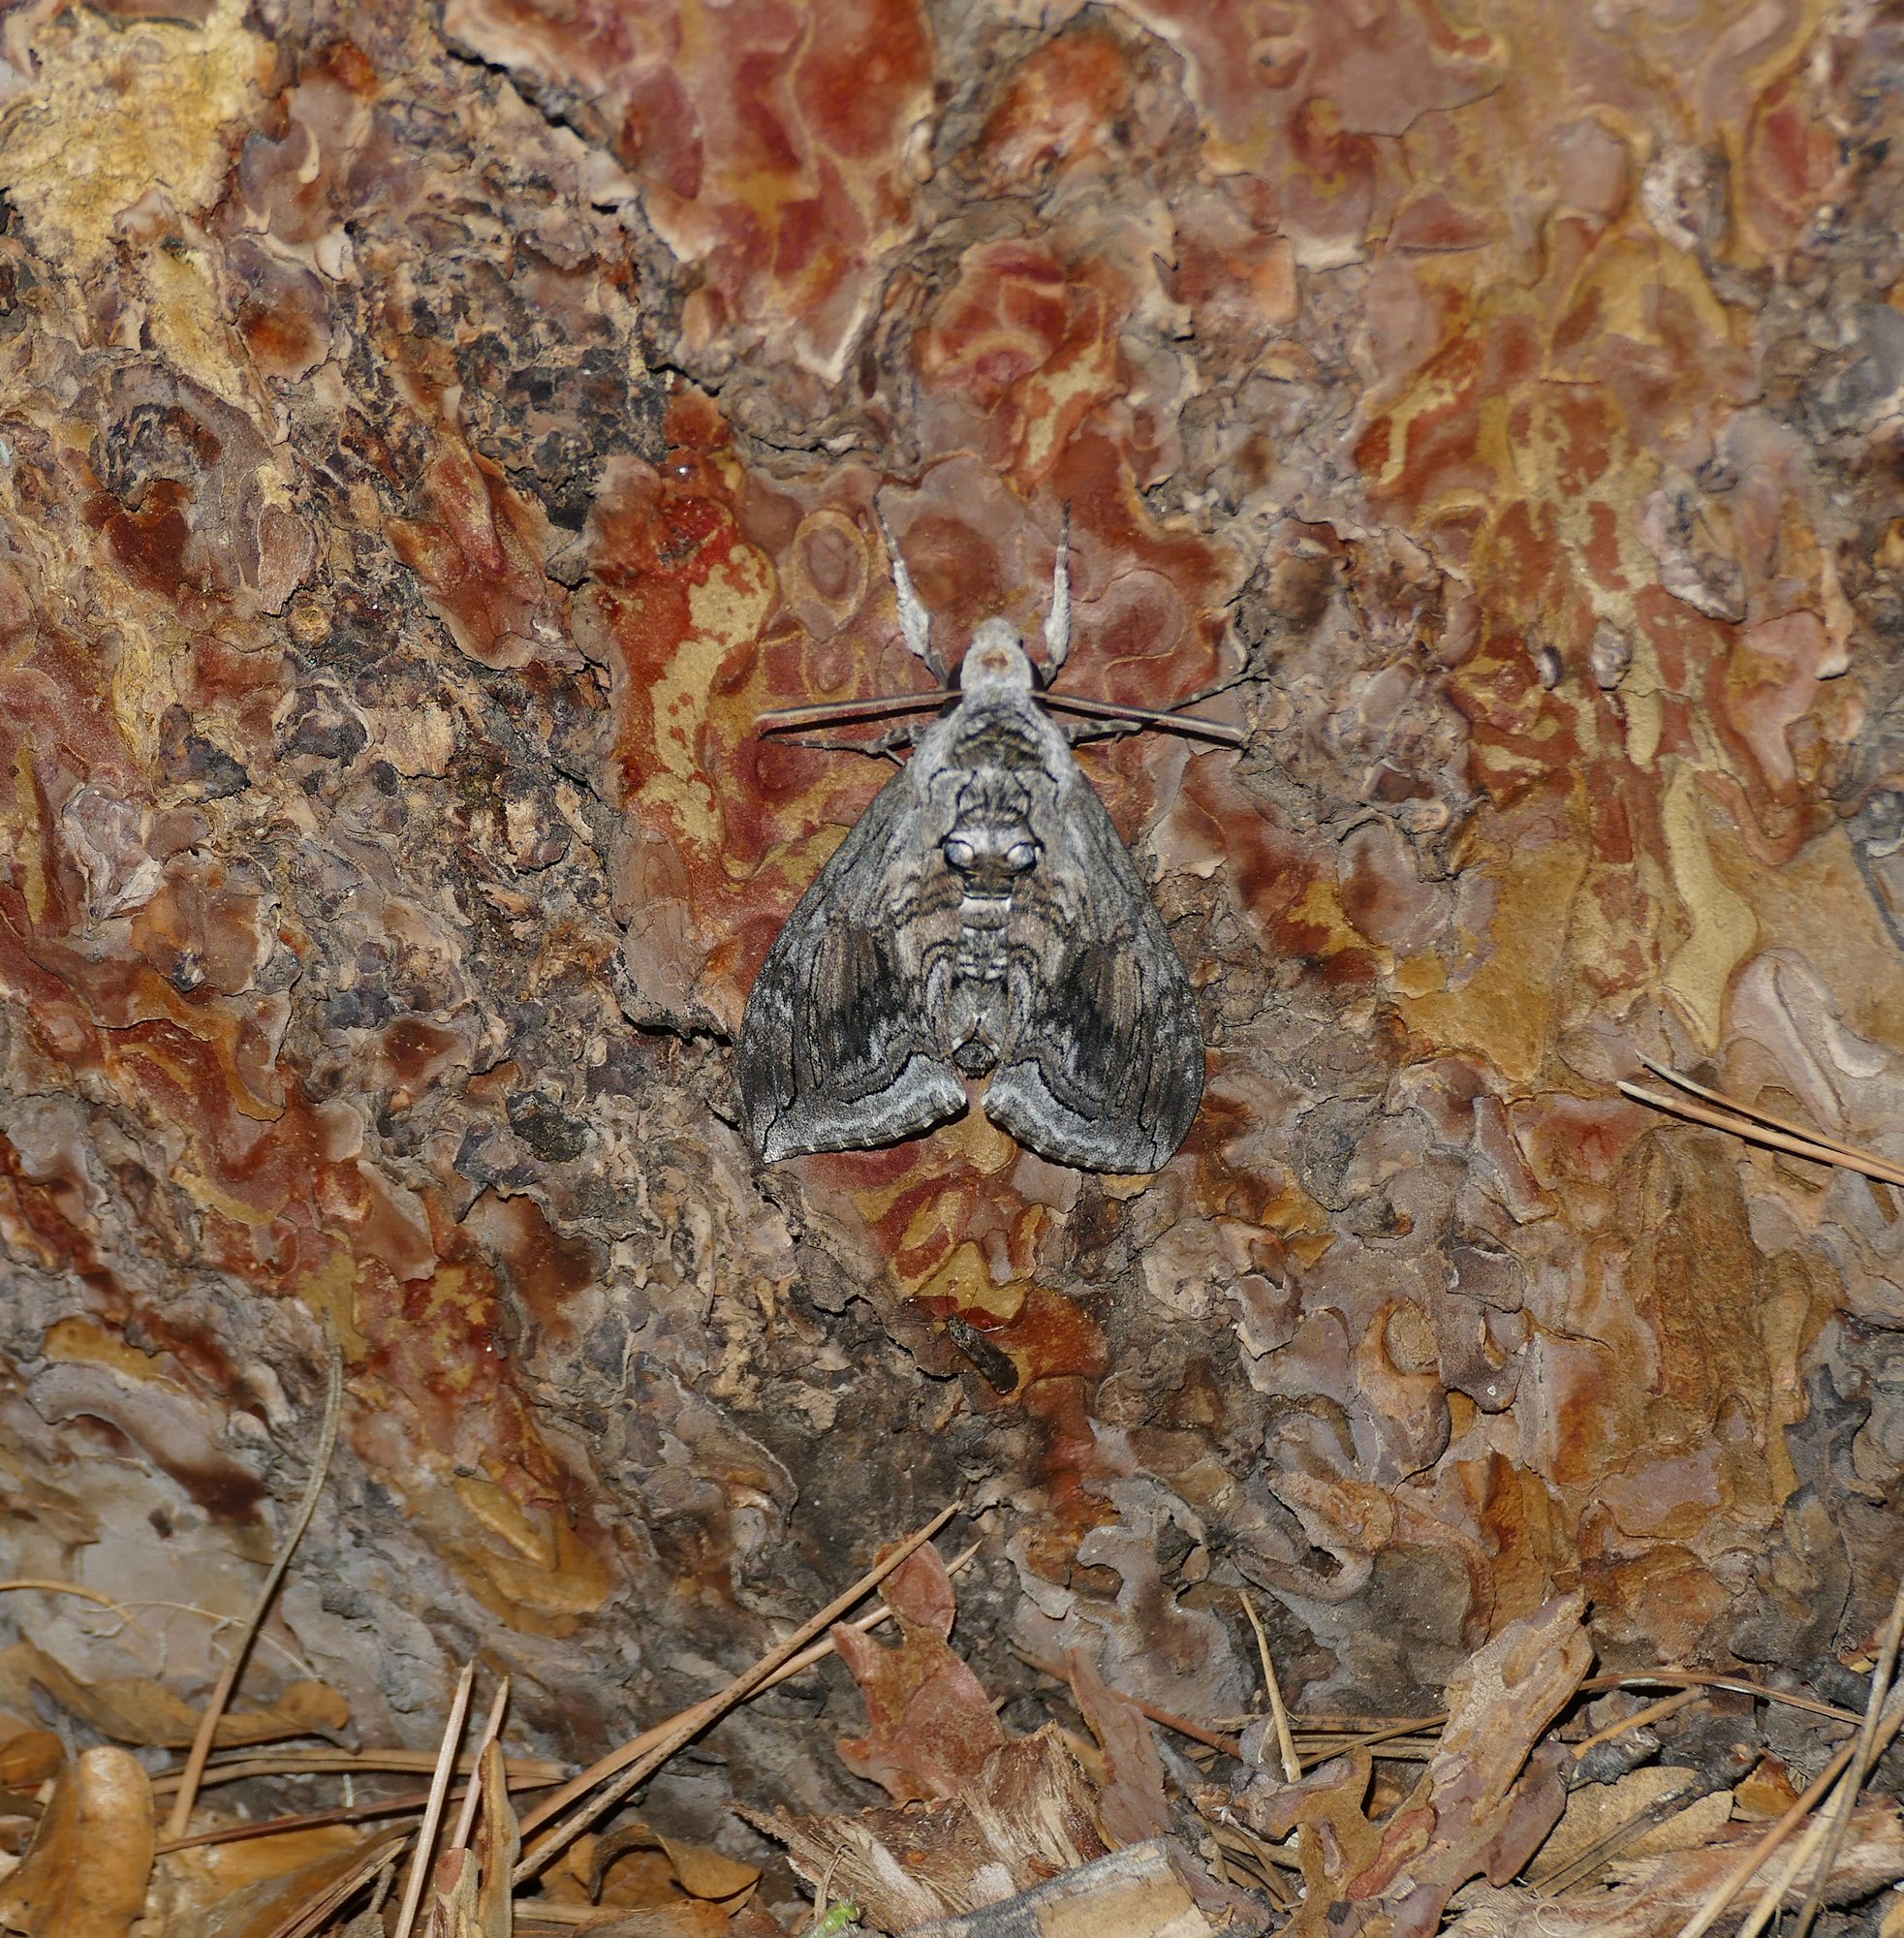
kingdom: Animalia
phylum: Arthropoda
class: Insecta
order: Lepidoptera
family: Sphingidae
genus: Manduca
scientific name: Manduca quinquemaculatus
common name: Five-spotted hawk-moth
